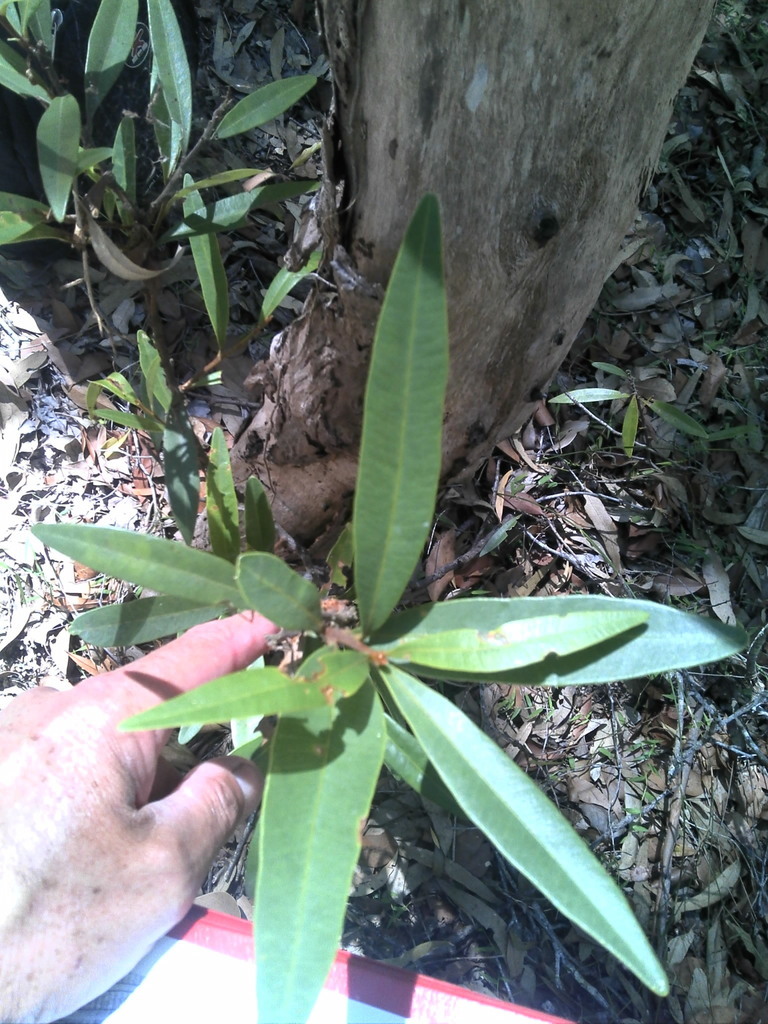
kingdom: Plantae
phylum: Tracheophyta
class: Magnoliopsida
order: Sapindales
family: Simaroubaceae
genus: Samadera
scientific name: Samadera bidwillii
